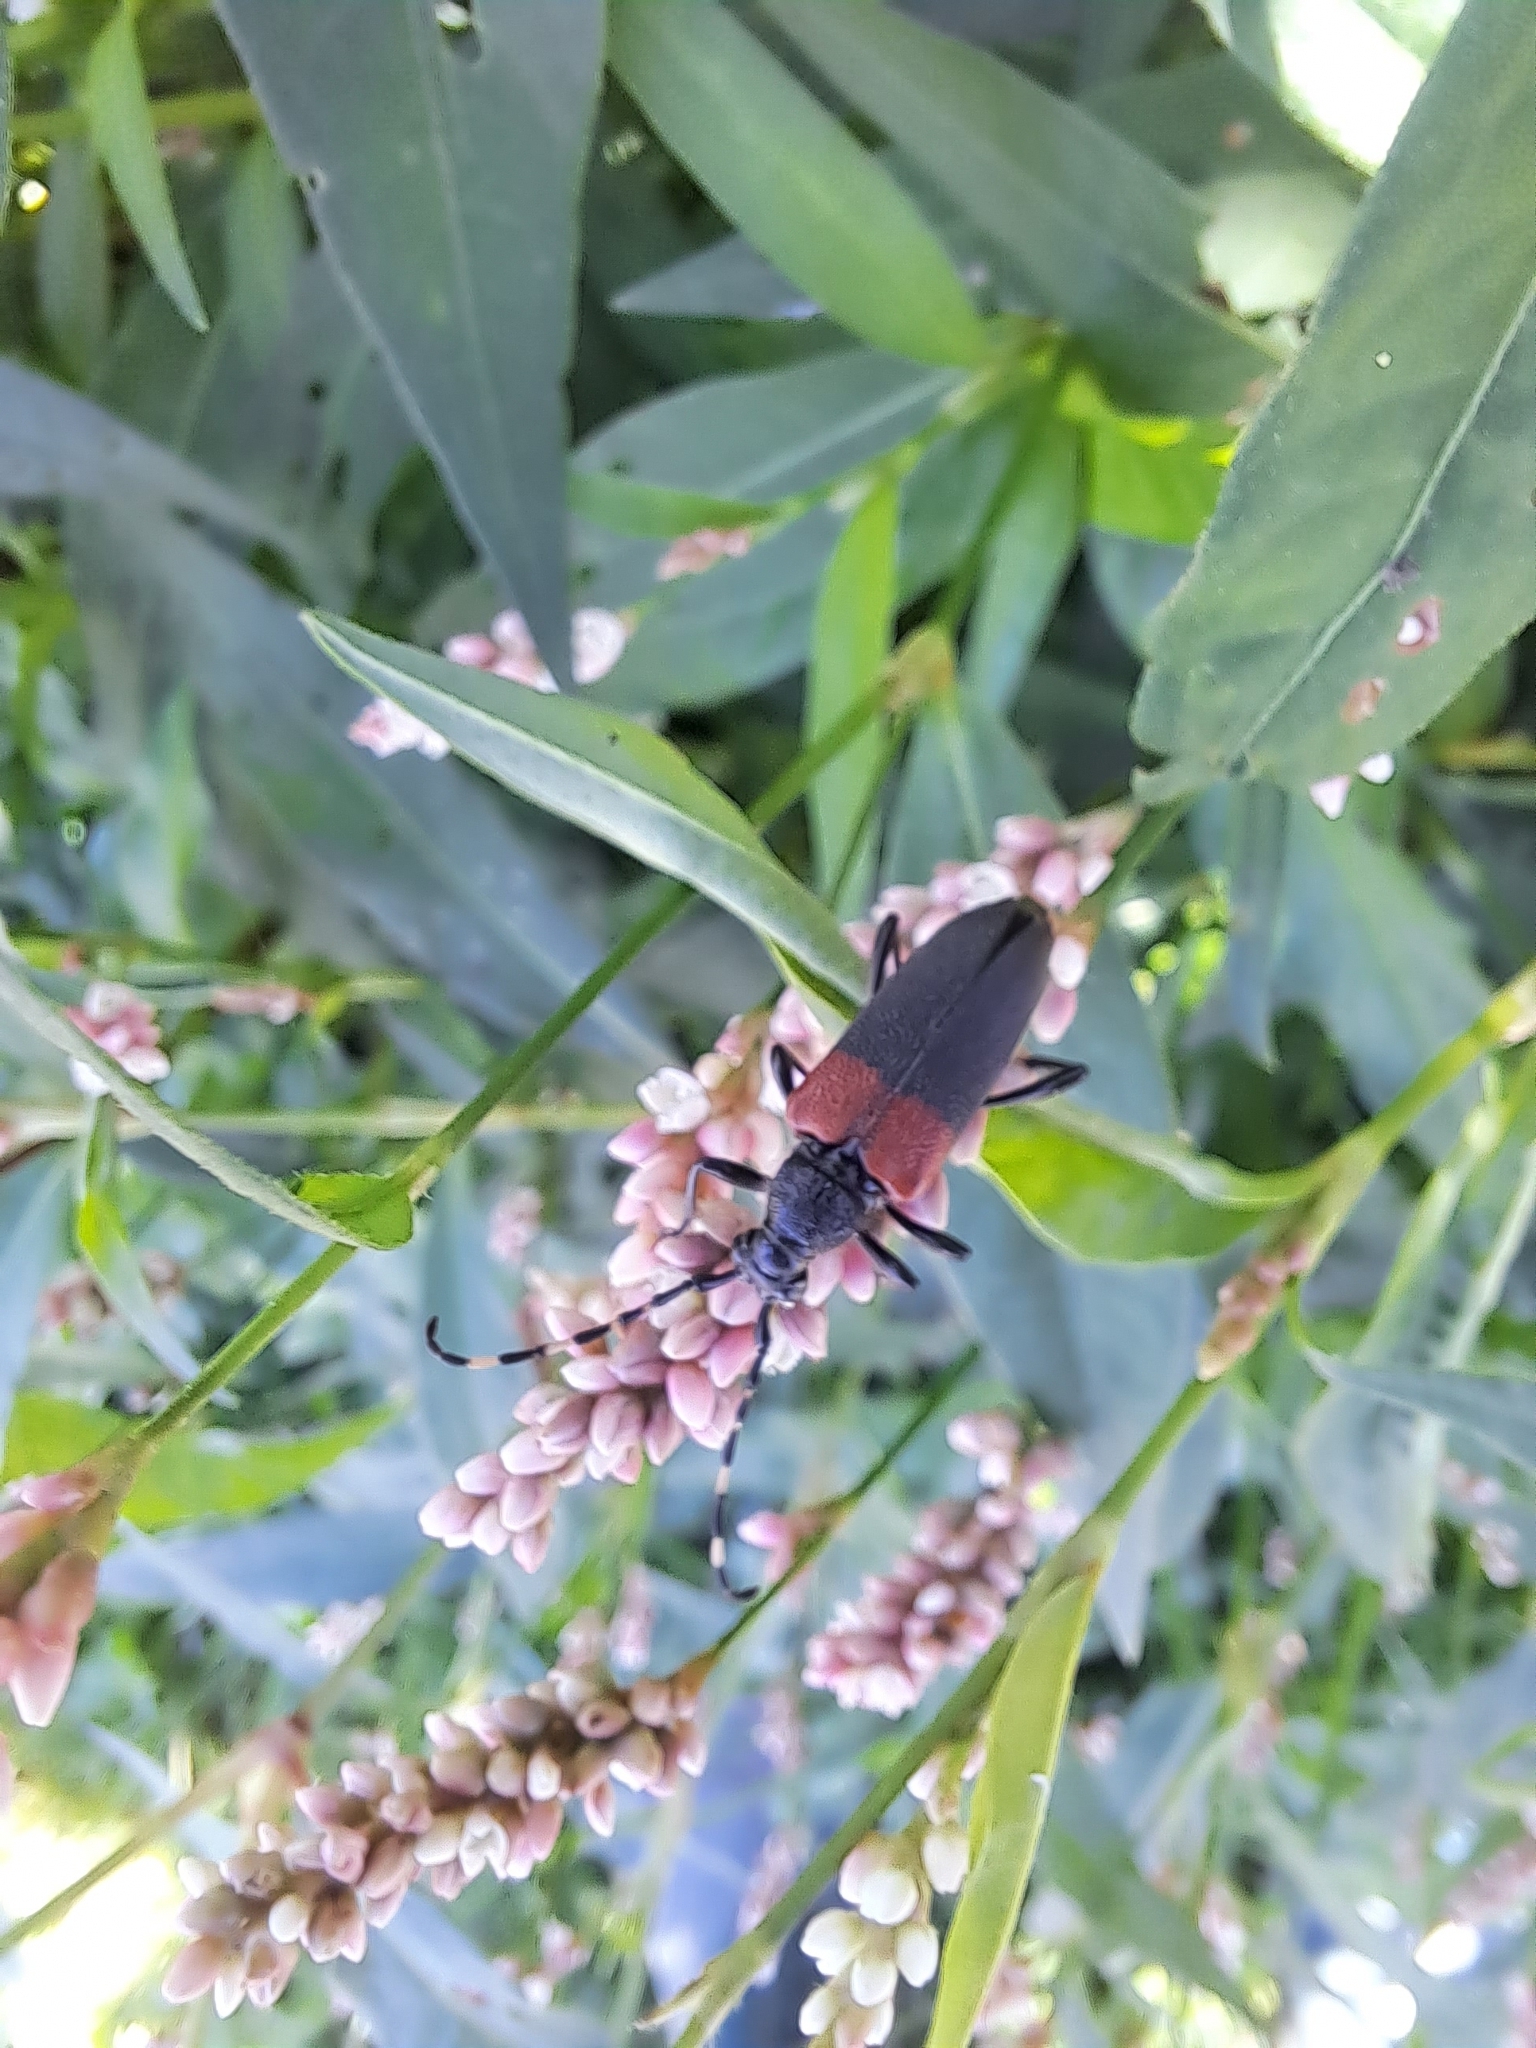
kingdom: Animalia
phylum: Arthropoda
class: Insecta
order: Coleoptera
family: Cerambycidae
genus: Stictoleptura
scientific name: Stictoleptura canadensis
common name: Red-shouldered pine borer
